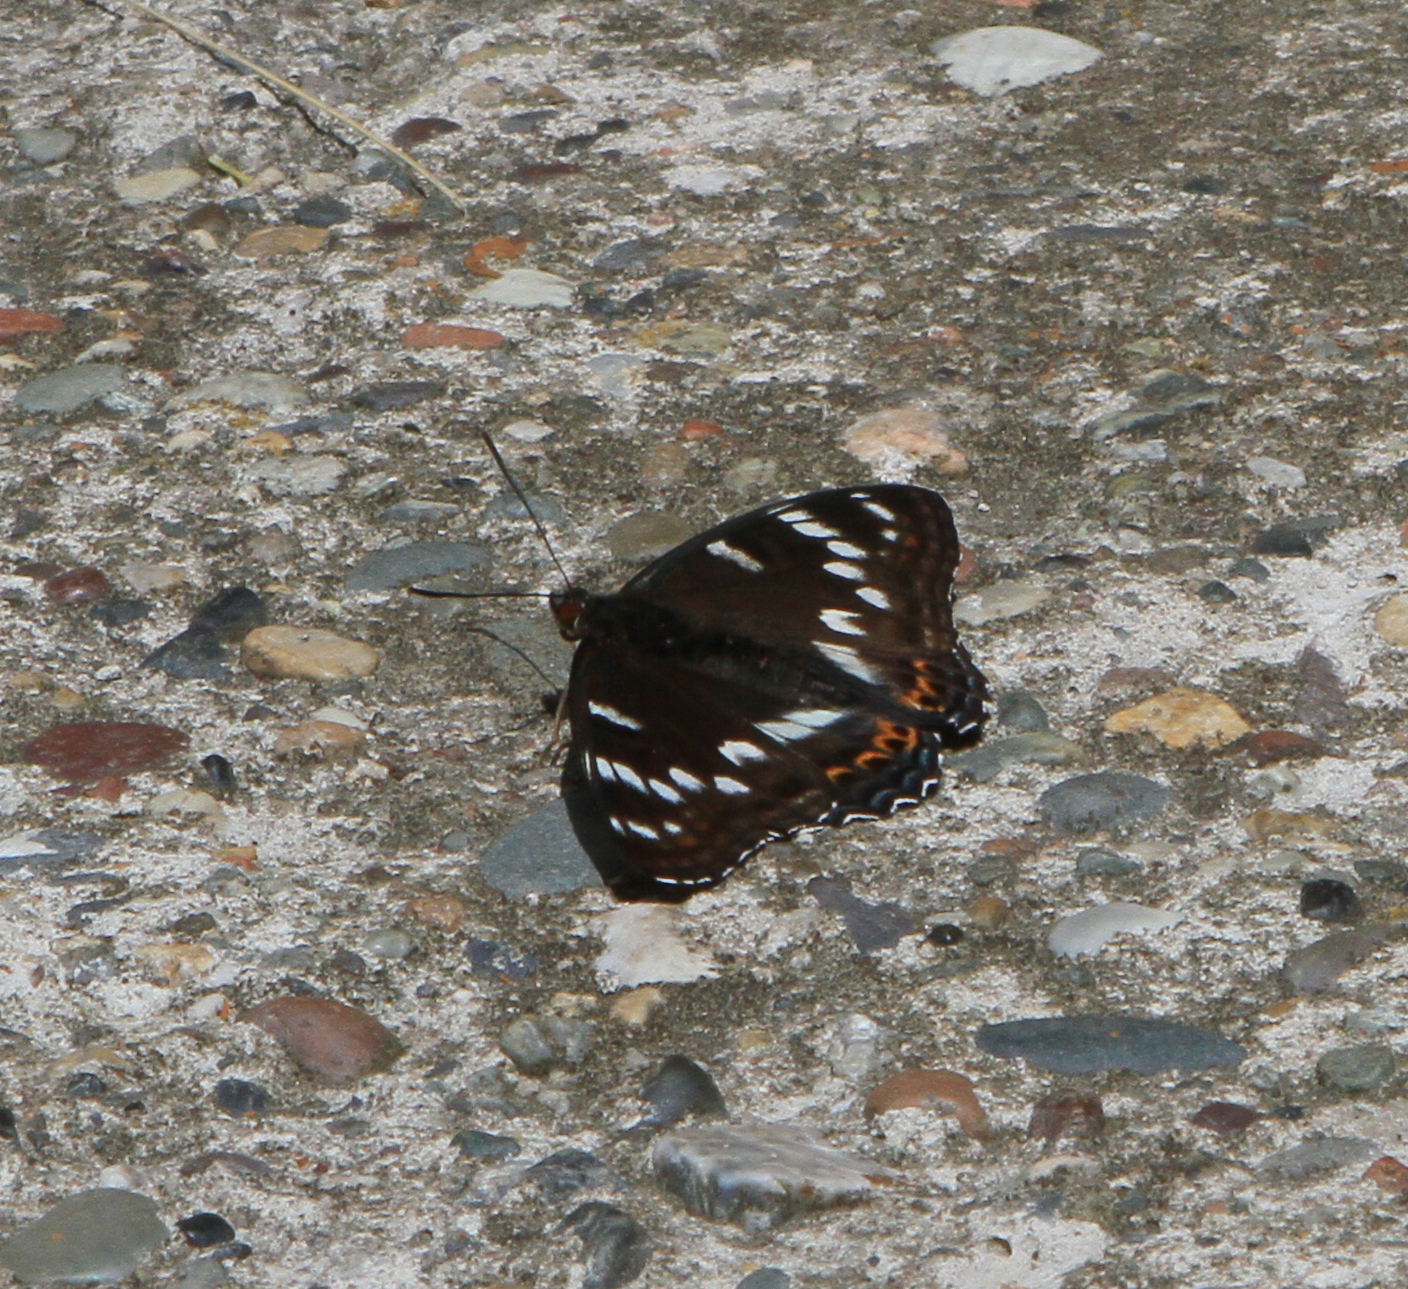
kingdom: Animalia
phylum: Arthropoda
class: Insecta
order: Lepidoptera
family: Nymphalidae
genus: Limenitis
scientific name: Limenitis populi
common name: Poplar admiral
